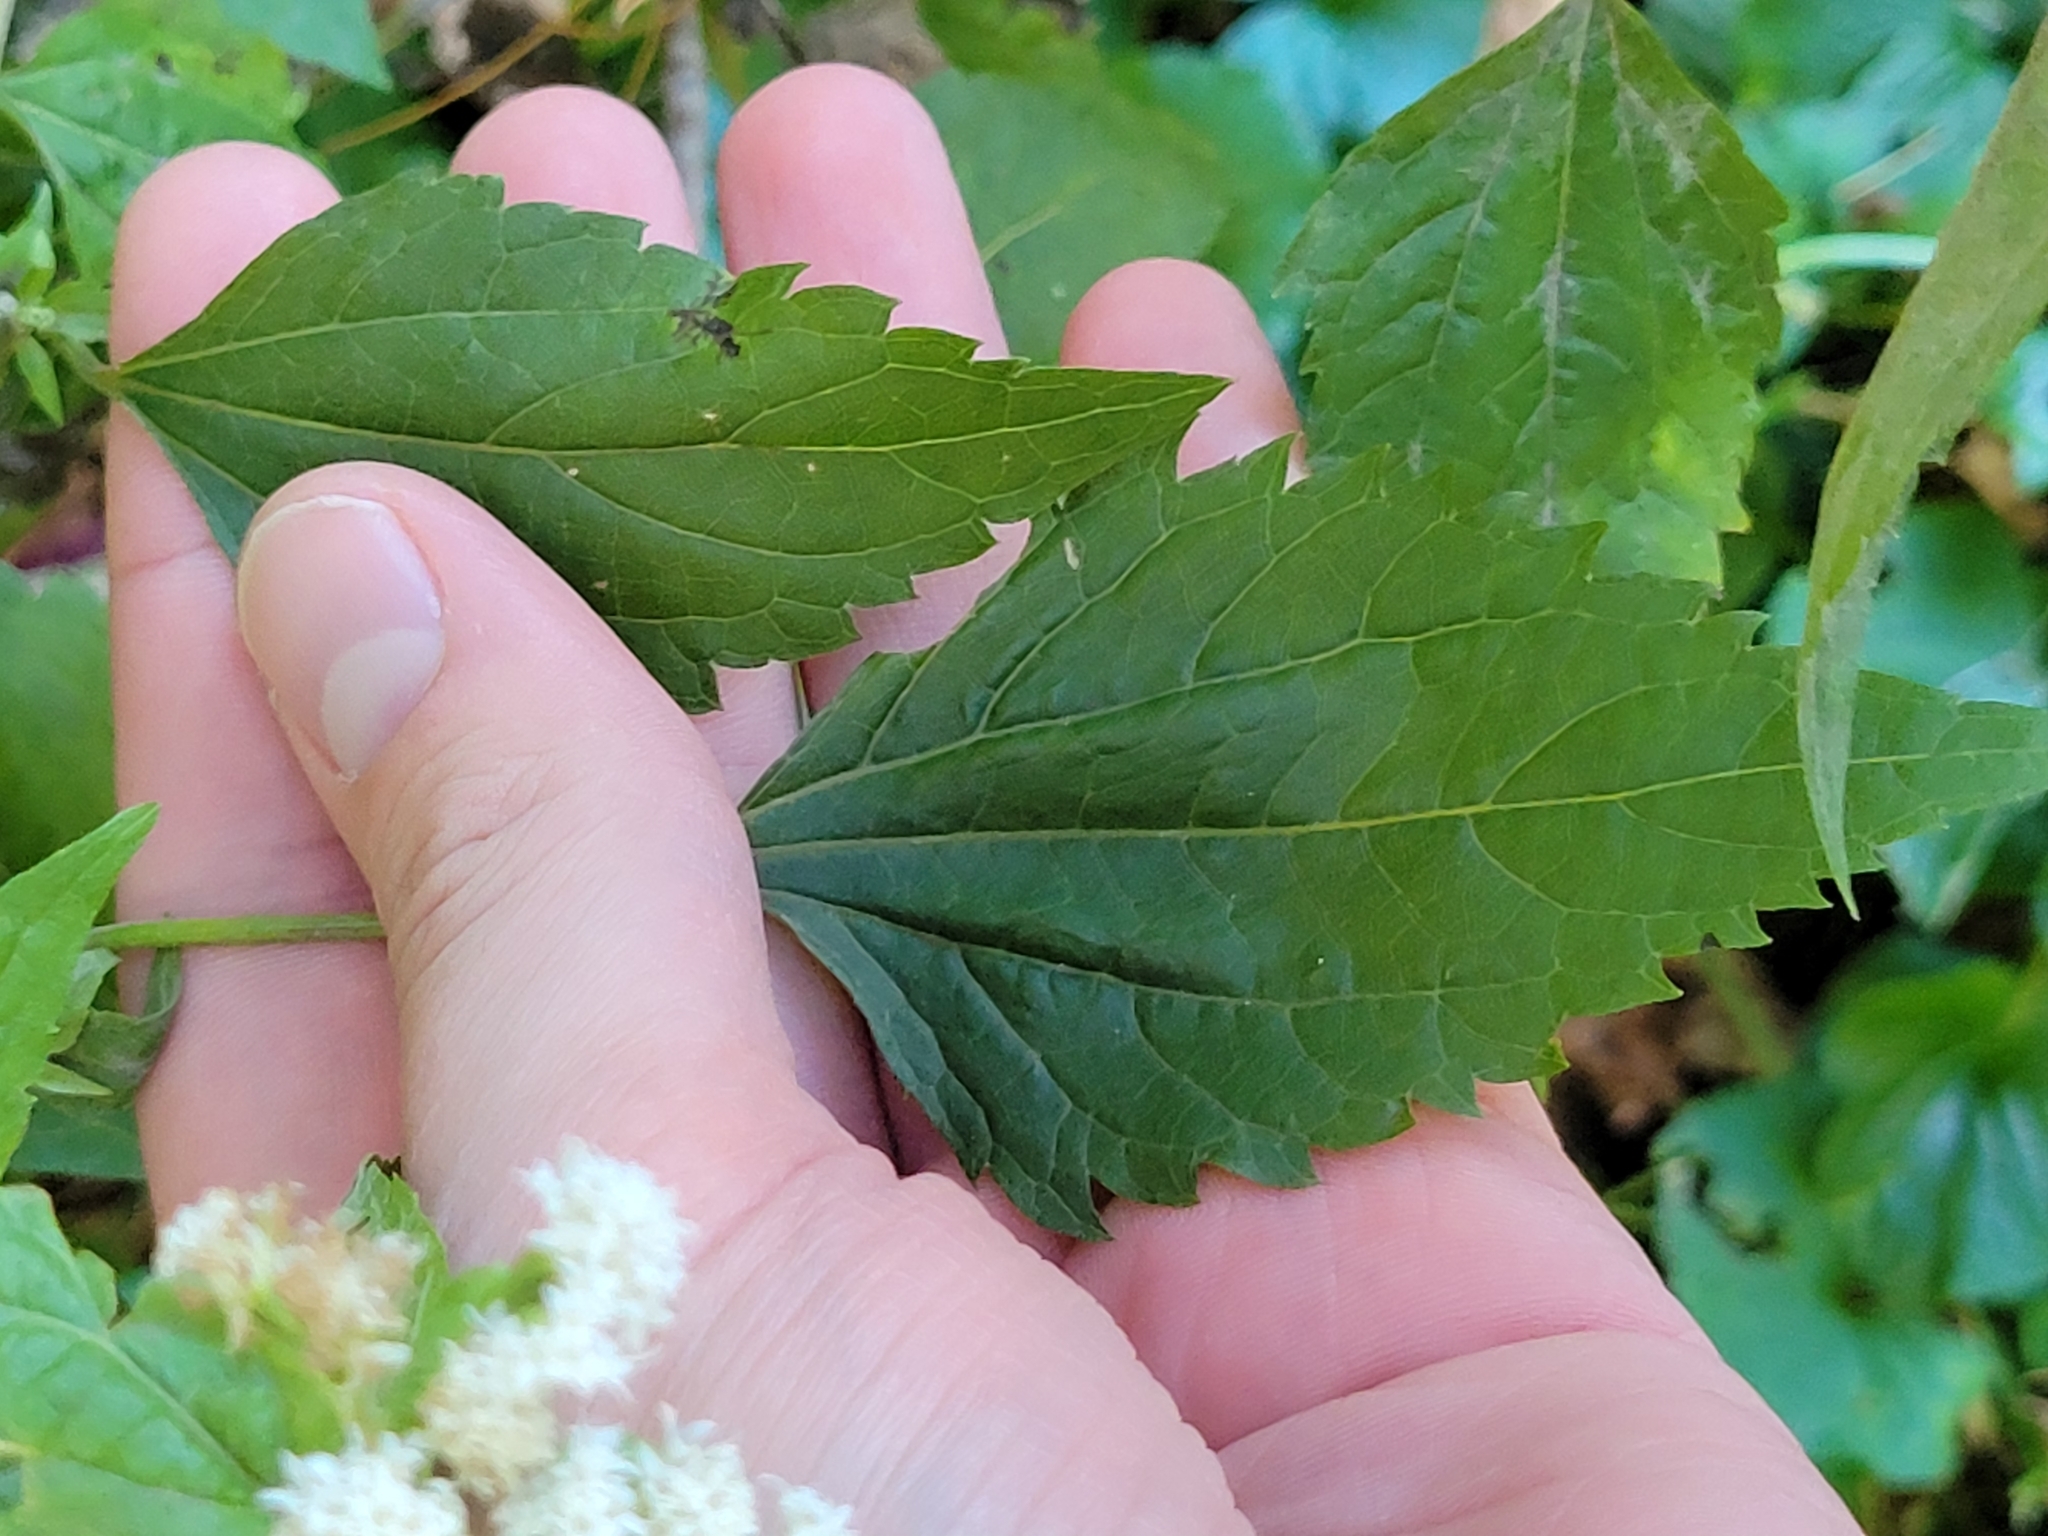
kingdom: Plantae
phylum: Tracheophyta
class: Magnoliopsida
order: Asterales
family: Asteraceae
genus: Ageratina
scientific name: Ageratina altissima
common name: White snakeroot
